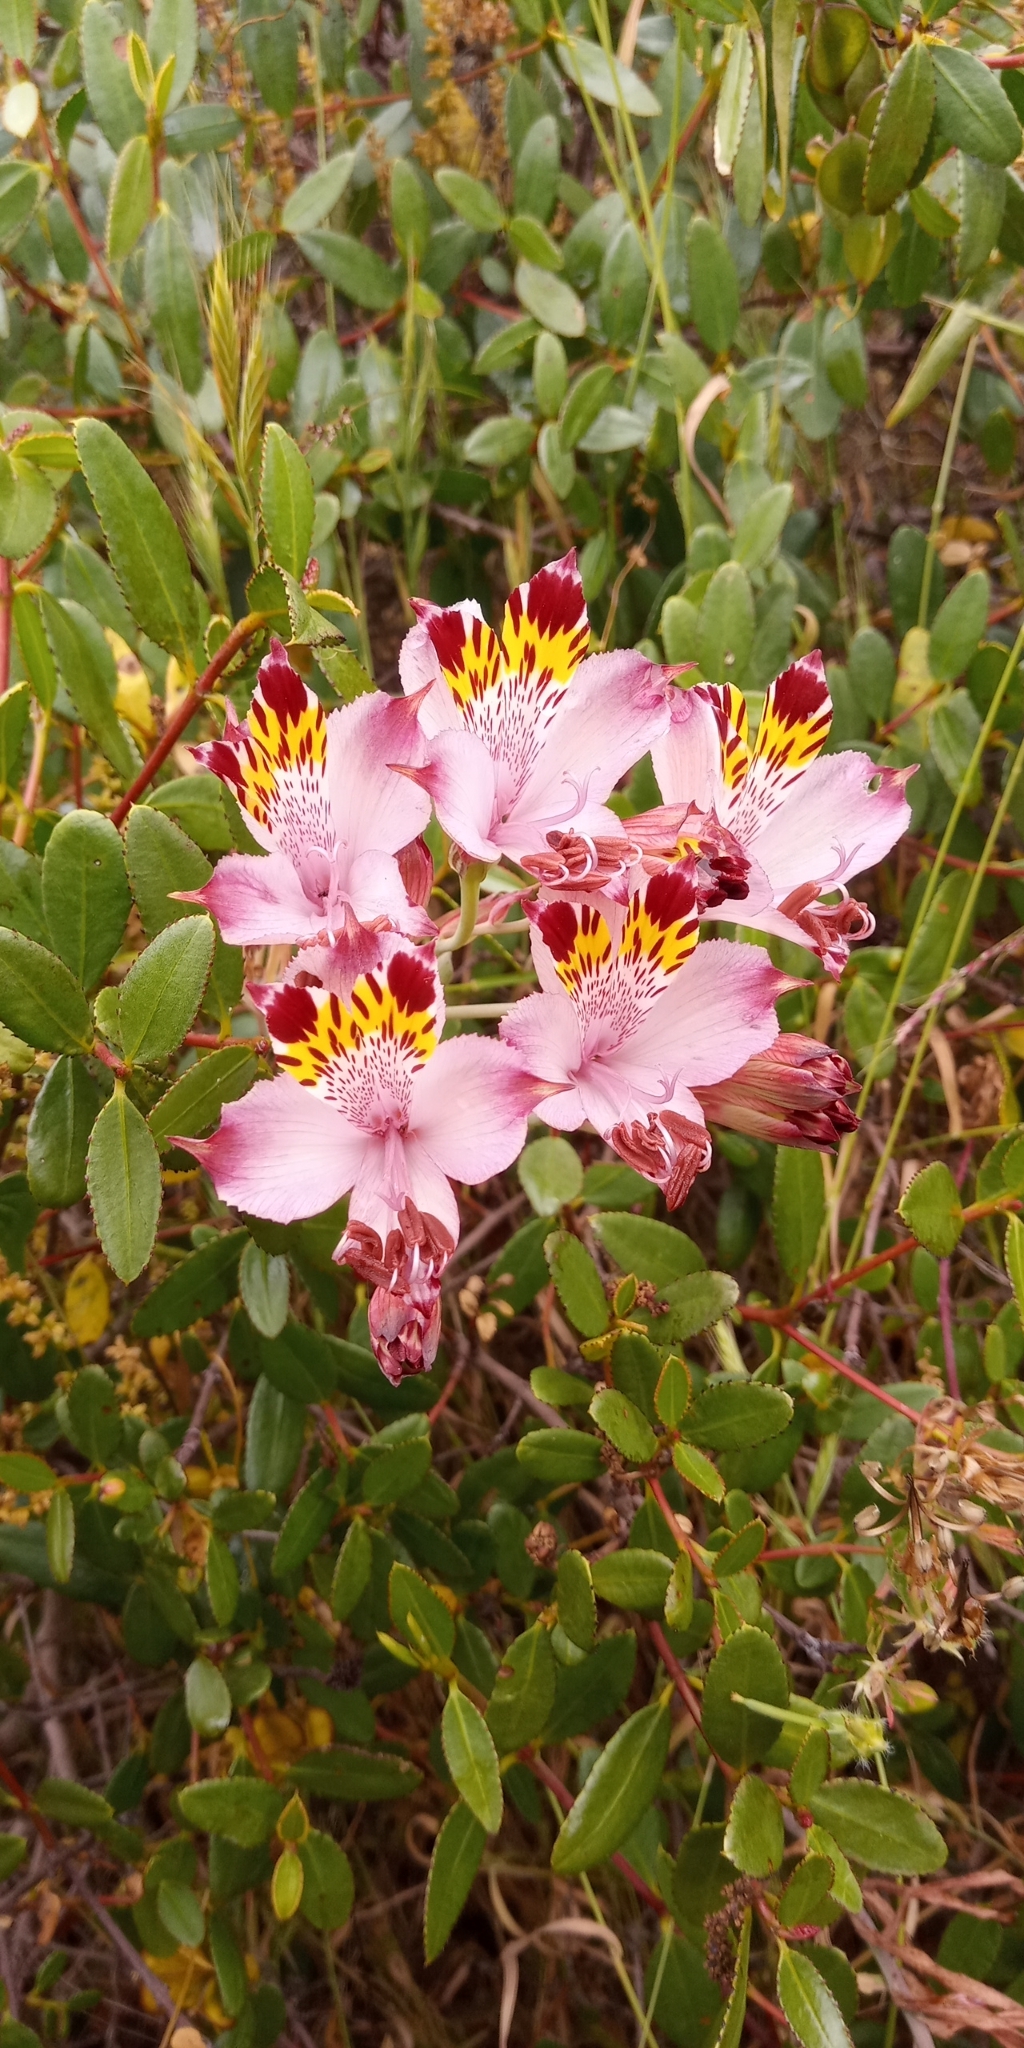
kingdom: Plantae
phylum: Tracheophyta
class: Liliopsida
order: Liliales
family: Alstroemeriaceae
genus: Alstroemeria
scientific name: Alstroemeria pulchra
